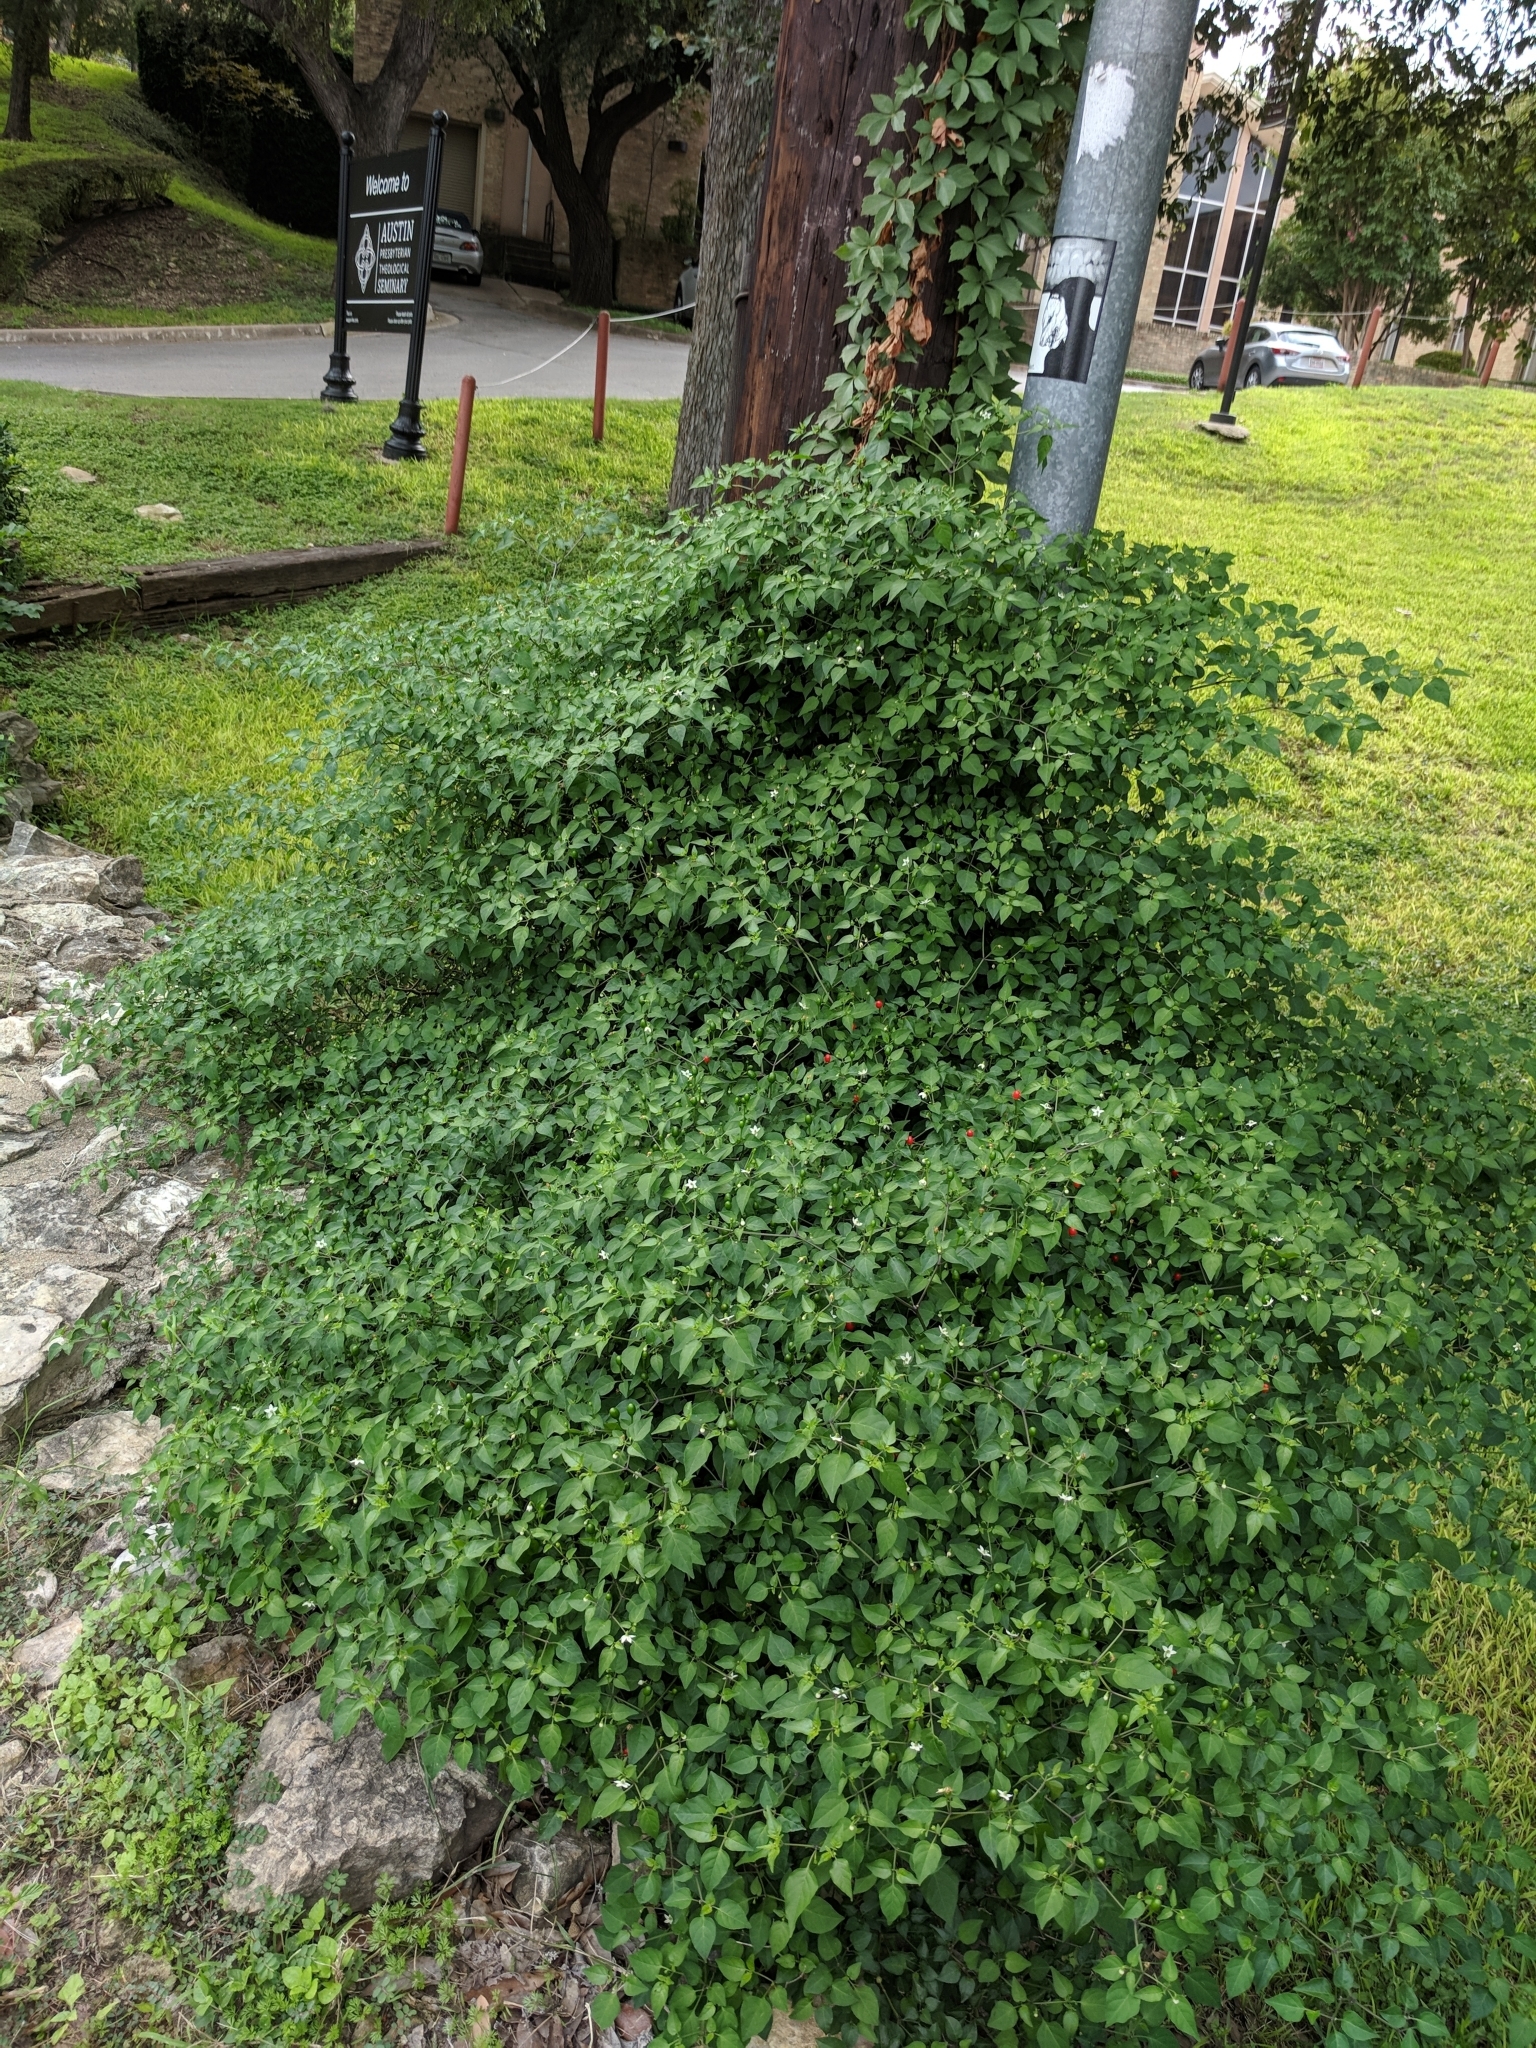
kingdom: Plantae
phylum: Tracheophyta
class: Magnoliopsida
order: Solanales
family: Solanaceae
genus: Capsicum
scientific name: Capsicum annuum
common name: Sweet pepper
